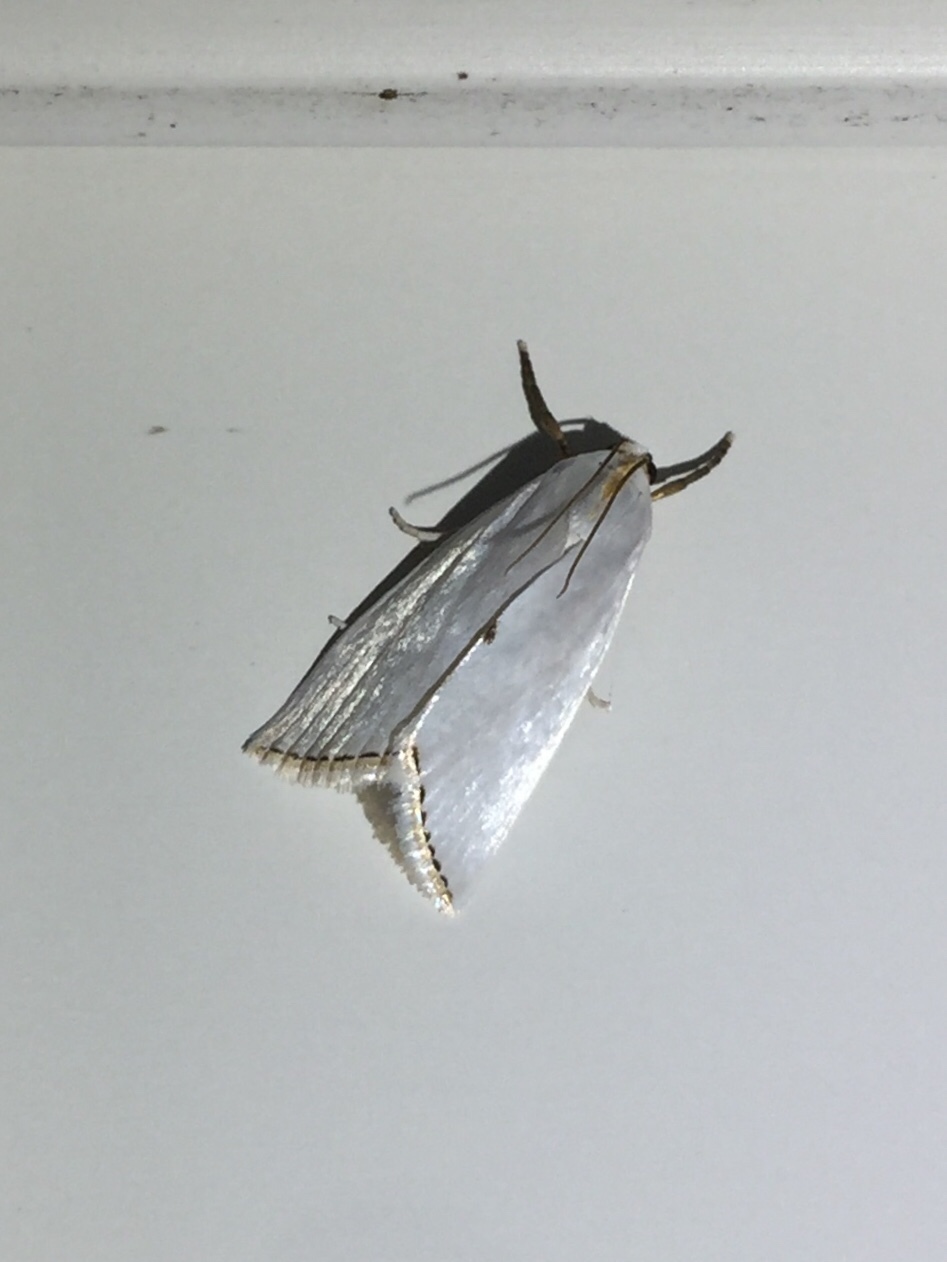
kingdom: Animalia
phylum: Arthropoda
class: Insecta
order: Lepidoptera
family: Crambidae
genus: Argyria
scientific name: Argyria nivalis
